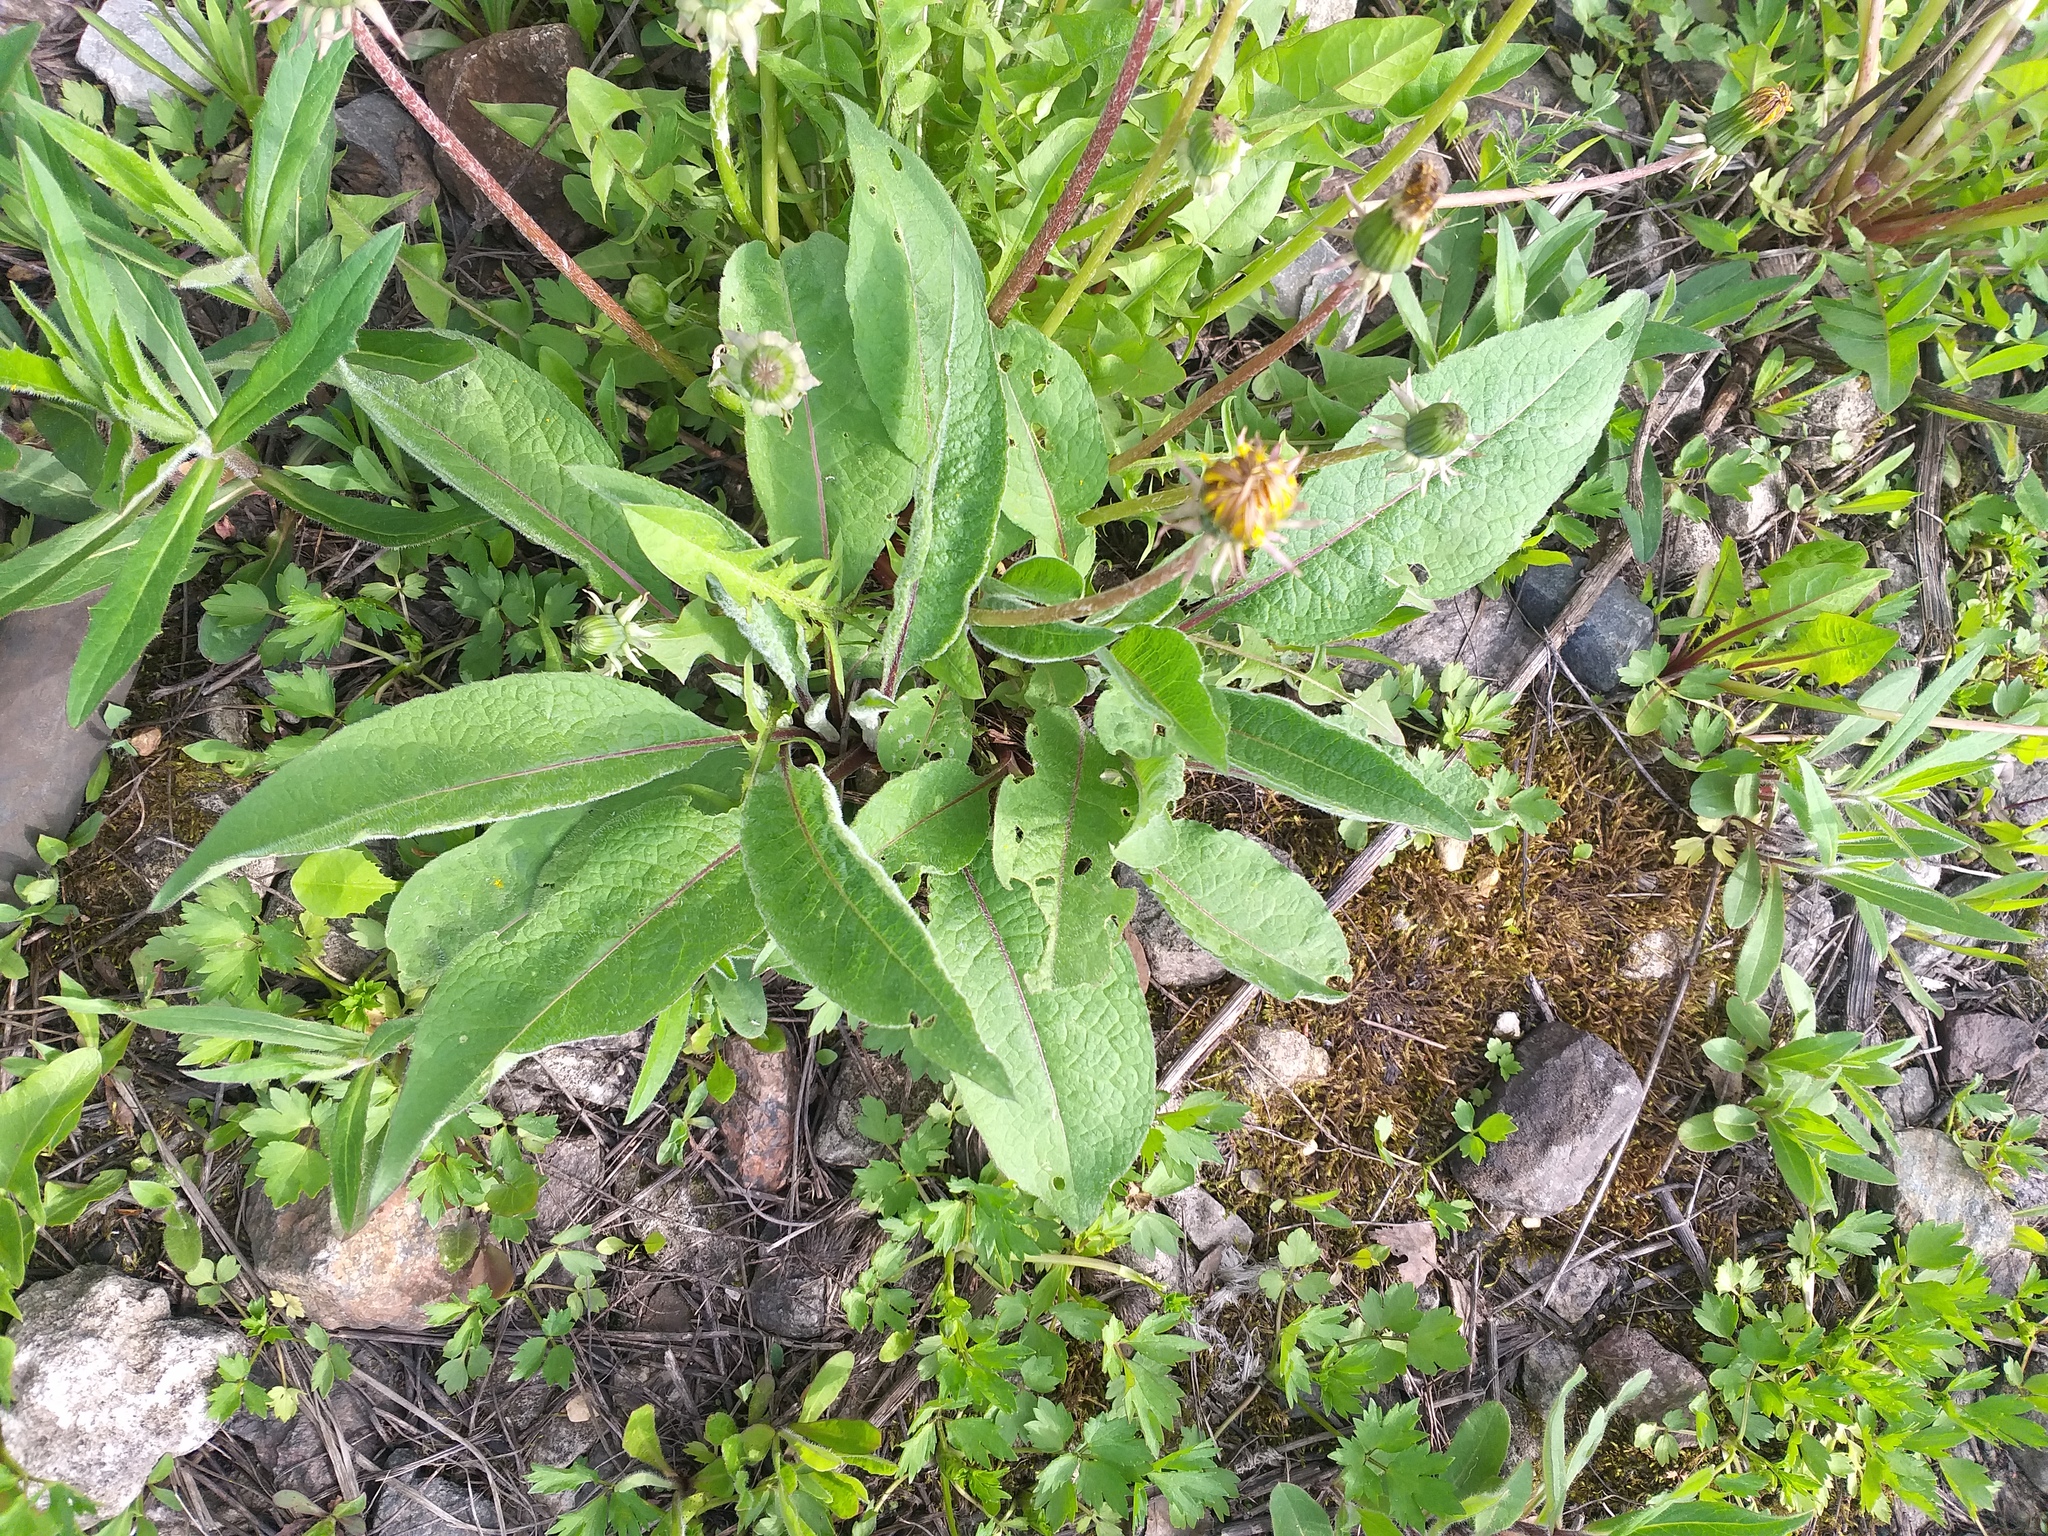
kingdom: Plantae
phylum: Tracheophyta
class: Magnoliopsida
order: Asterales
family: Asteraceae
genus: Centaurea
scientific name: Centaurea phrygia
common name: Wig knapweed
